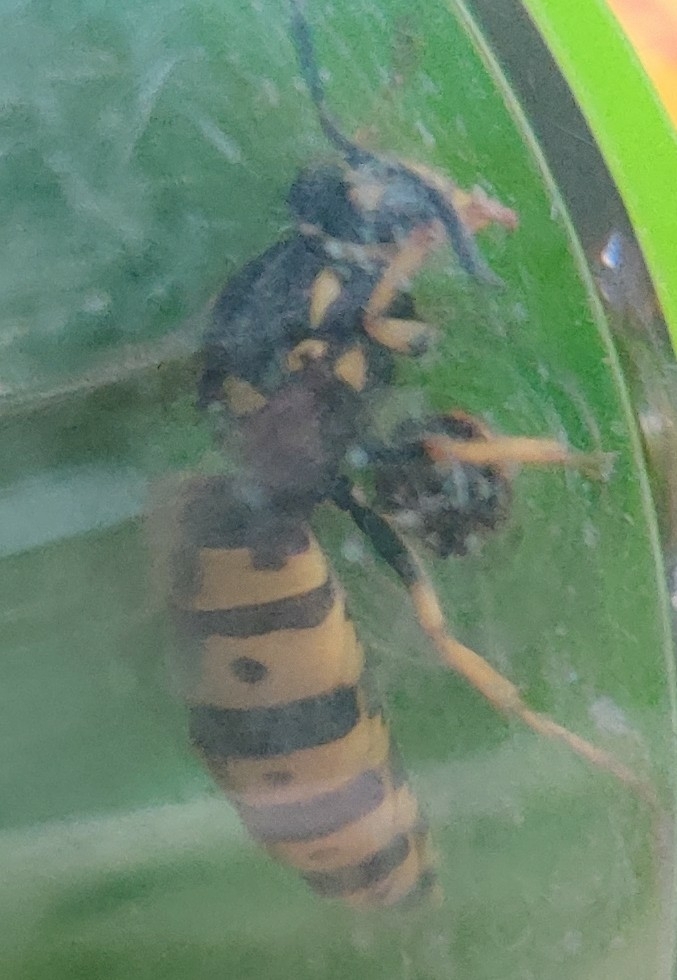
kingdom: Animalia
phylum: Arthropoda
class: Insecta
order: Hymenoptera
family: Vespidae
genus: Vespula
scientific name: Vespula germanica
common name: German wasp
